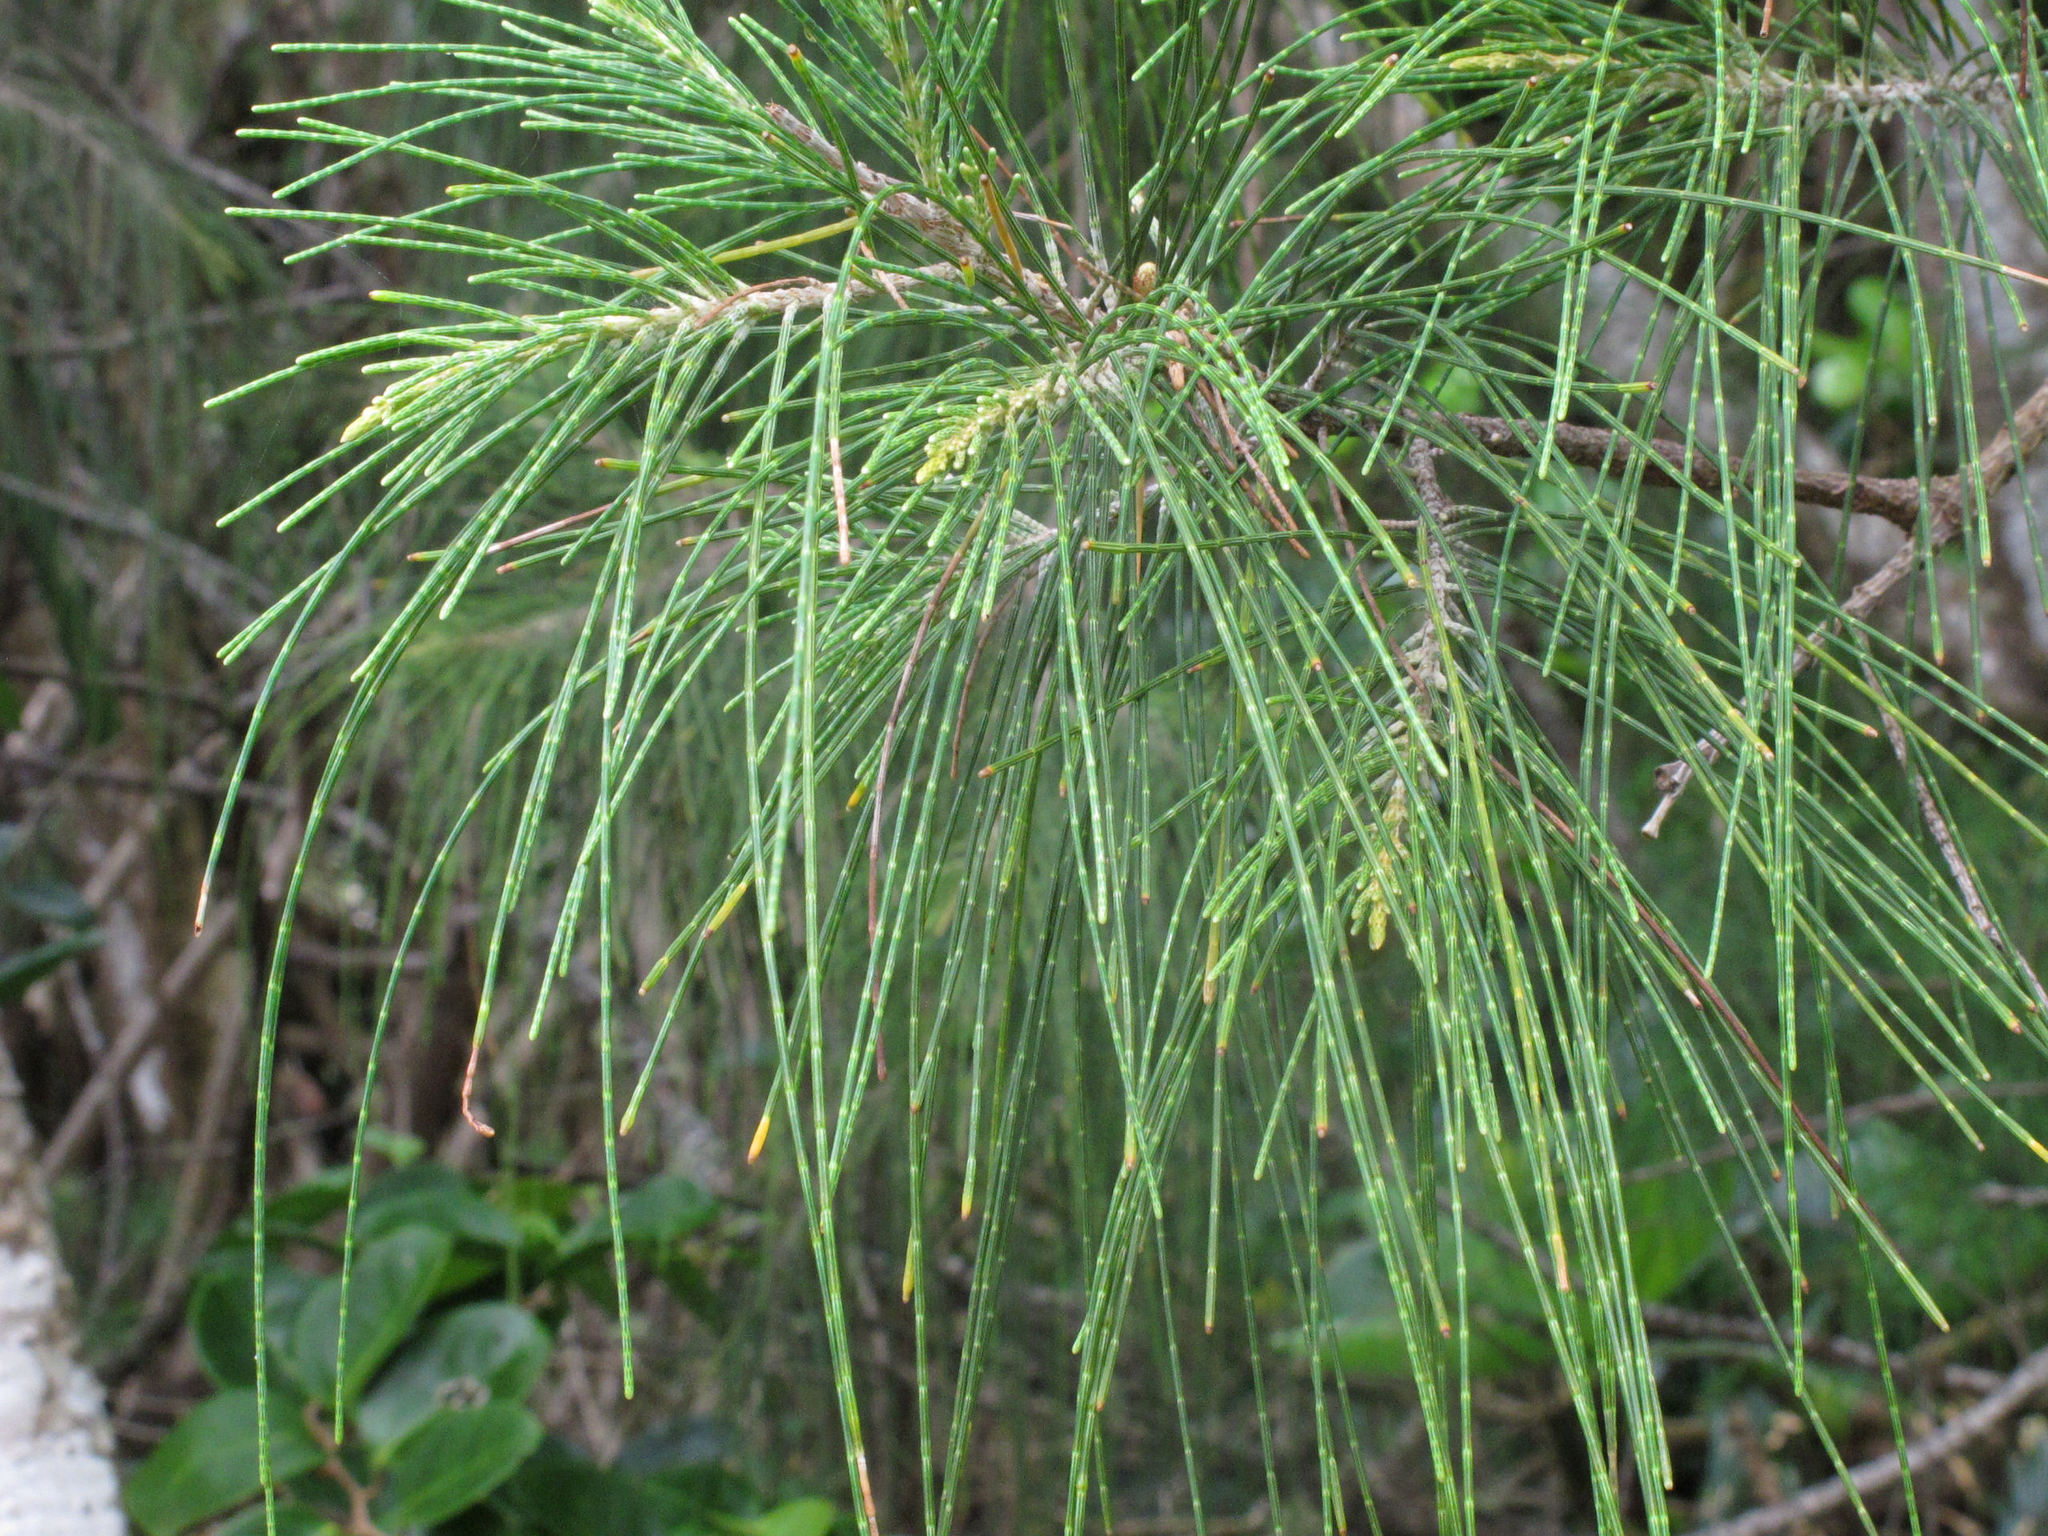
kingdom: Plantae
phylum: Tracheophyta
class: Magnoliopsida
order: Fagales
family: Casuarinaceae
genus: Casuarina
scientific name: Casuarina equisetifolia
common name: Beach sheoak
